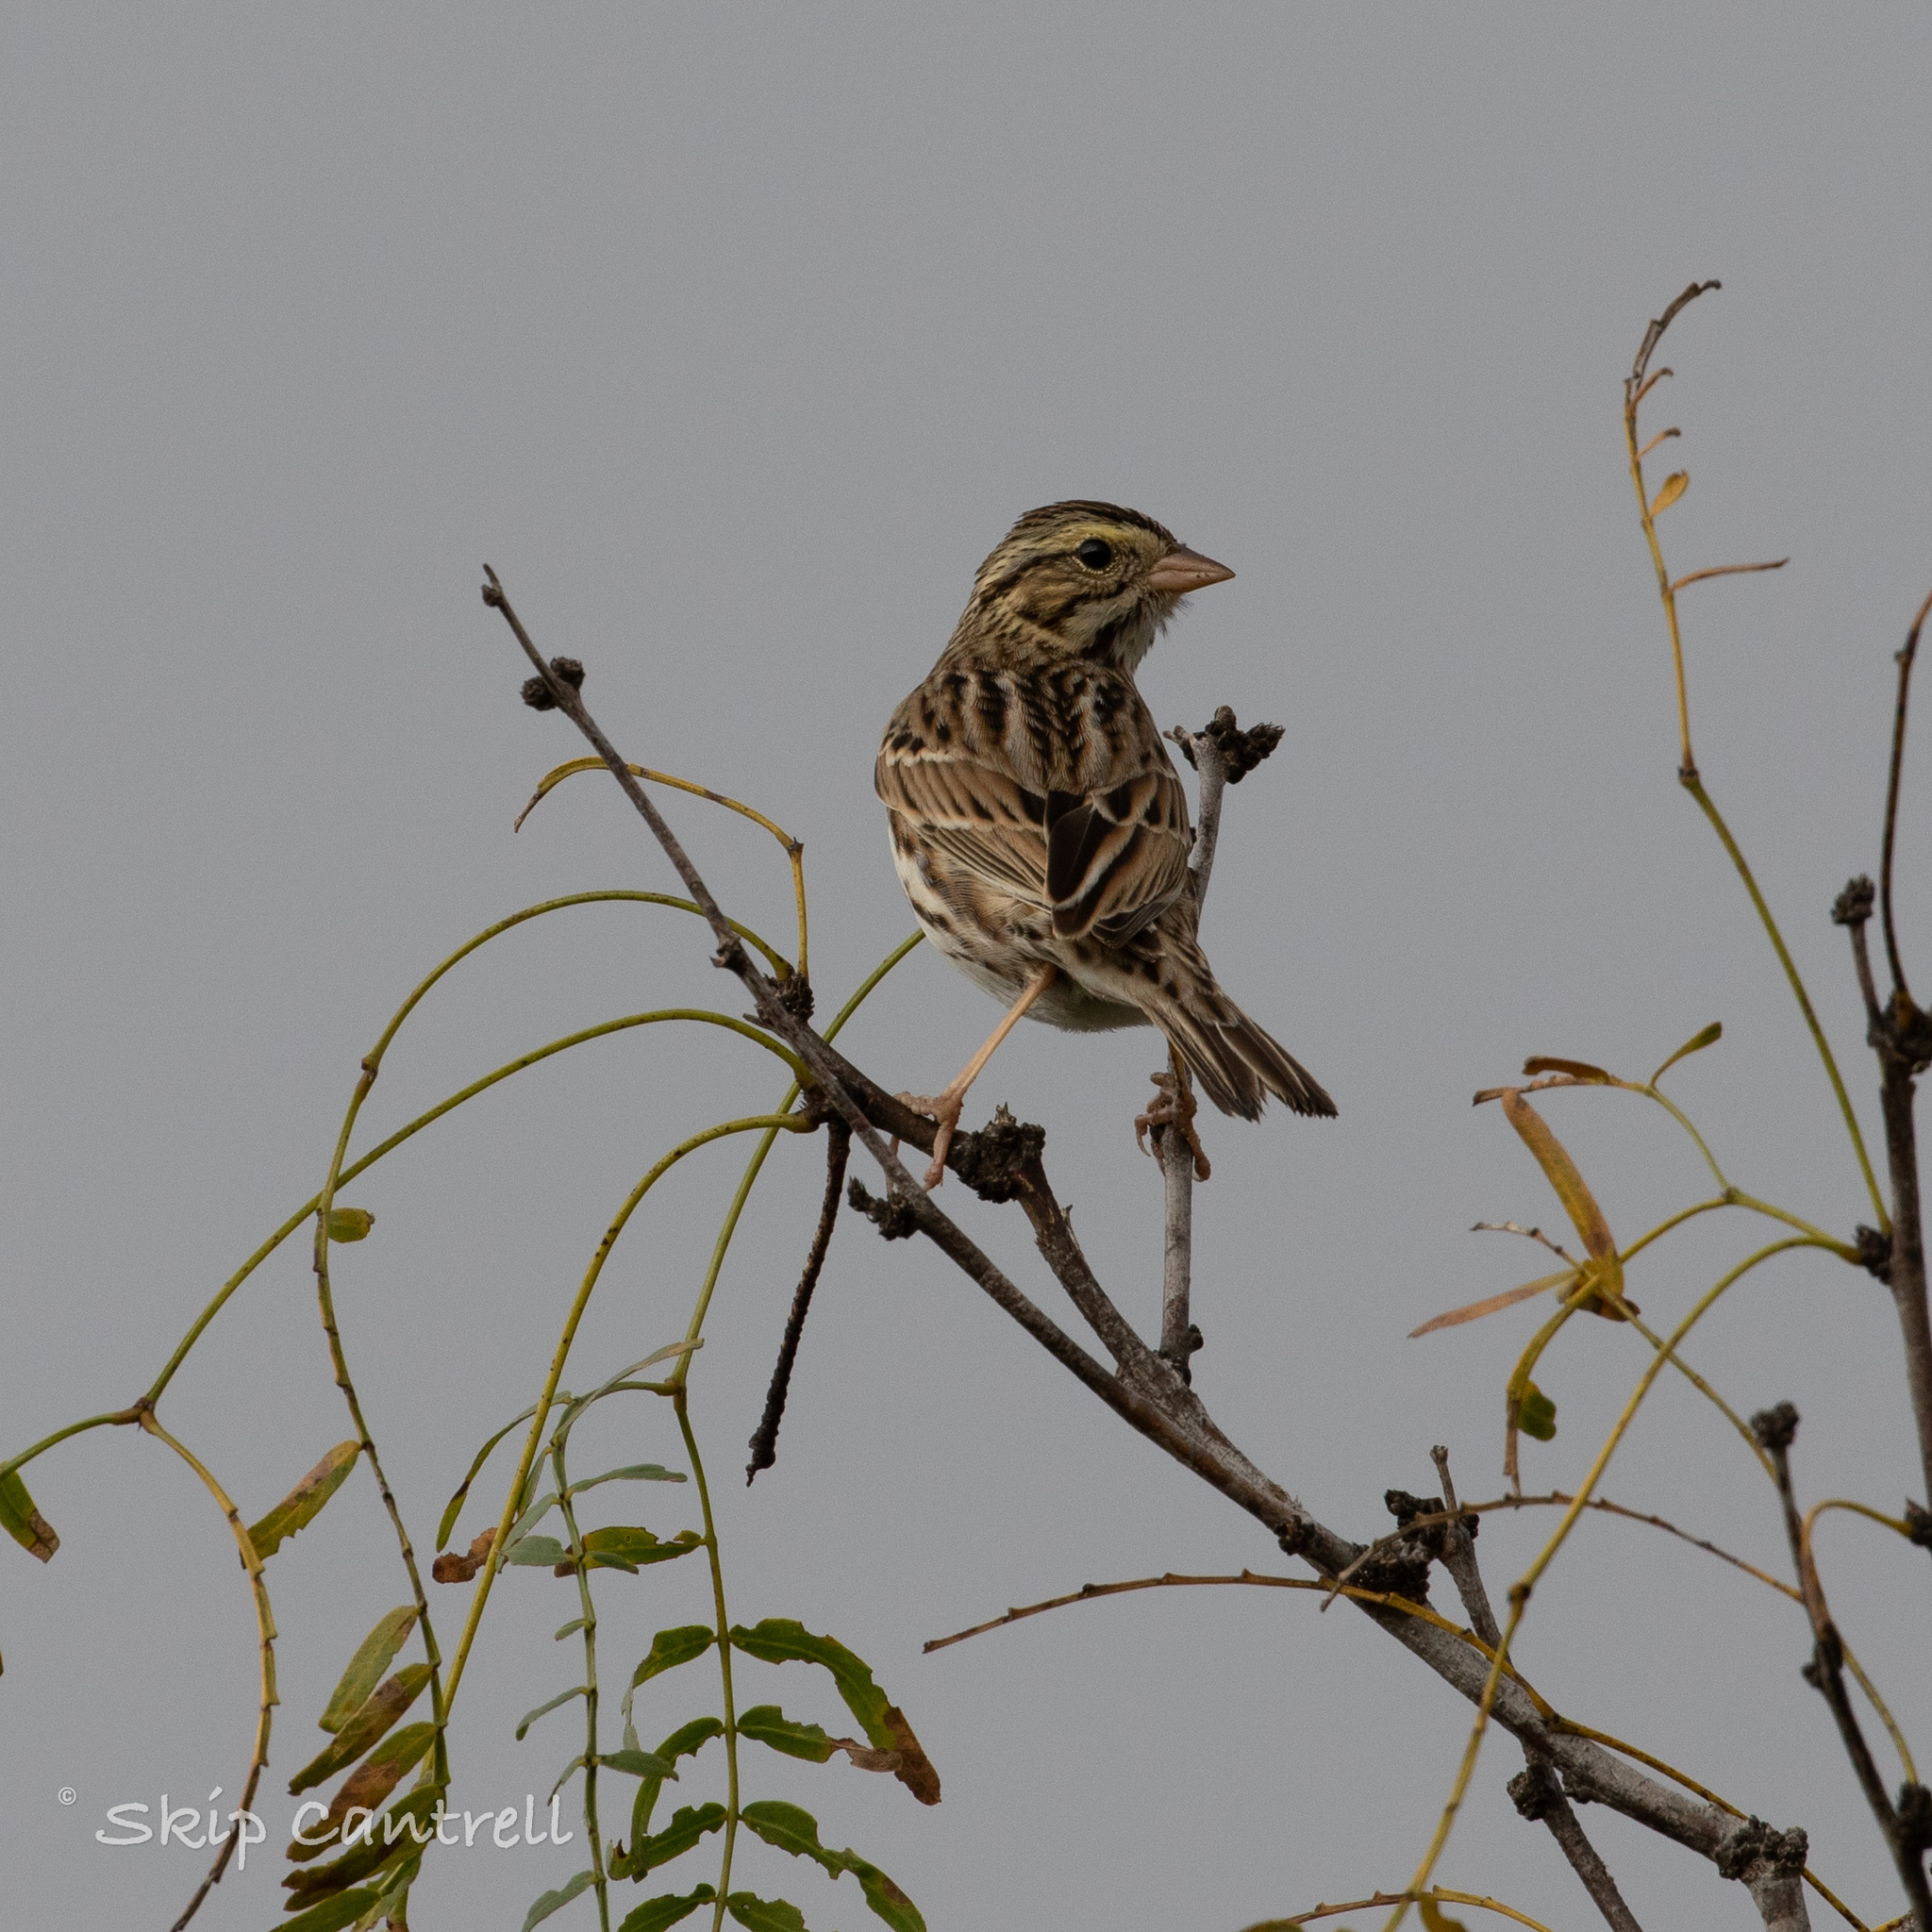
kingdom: Animalia
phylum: Chordata
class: Aves
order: Passeriformes
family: Passerellidae
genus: Passerculus
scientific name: Passerculus sandwichensis
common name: Savannah sparrow
